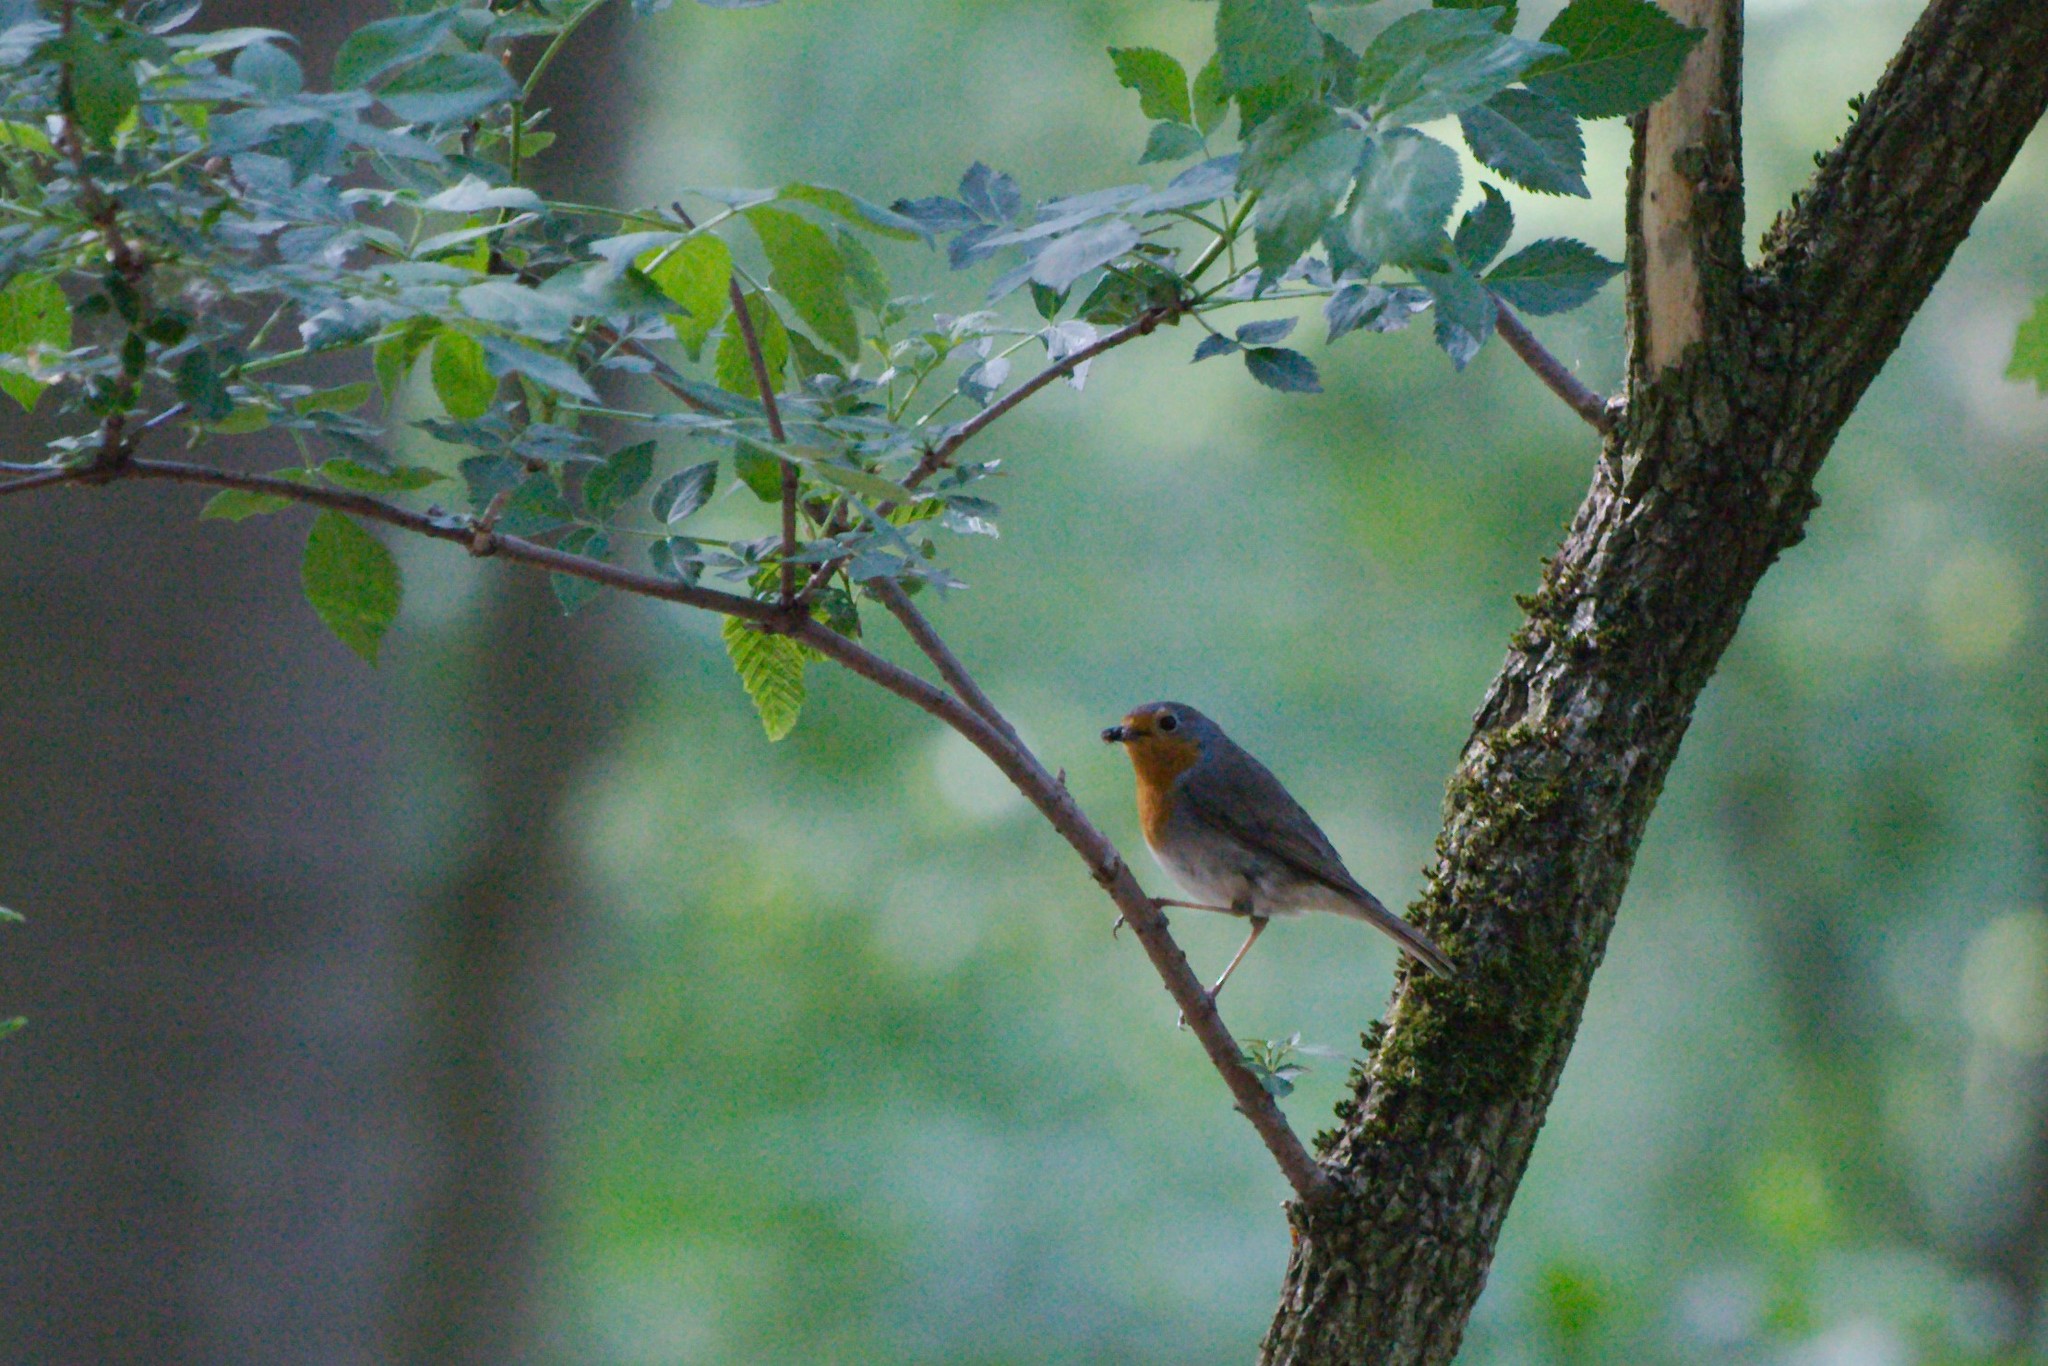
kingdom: Animalia
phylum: Chordata
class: Aves
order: Passeriformes
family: Muscicapidae
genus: Erithacus
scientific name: Erithacus rubecula
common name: European robin
